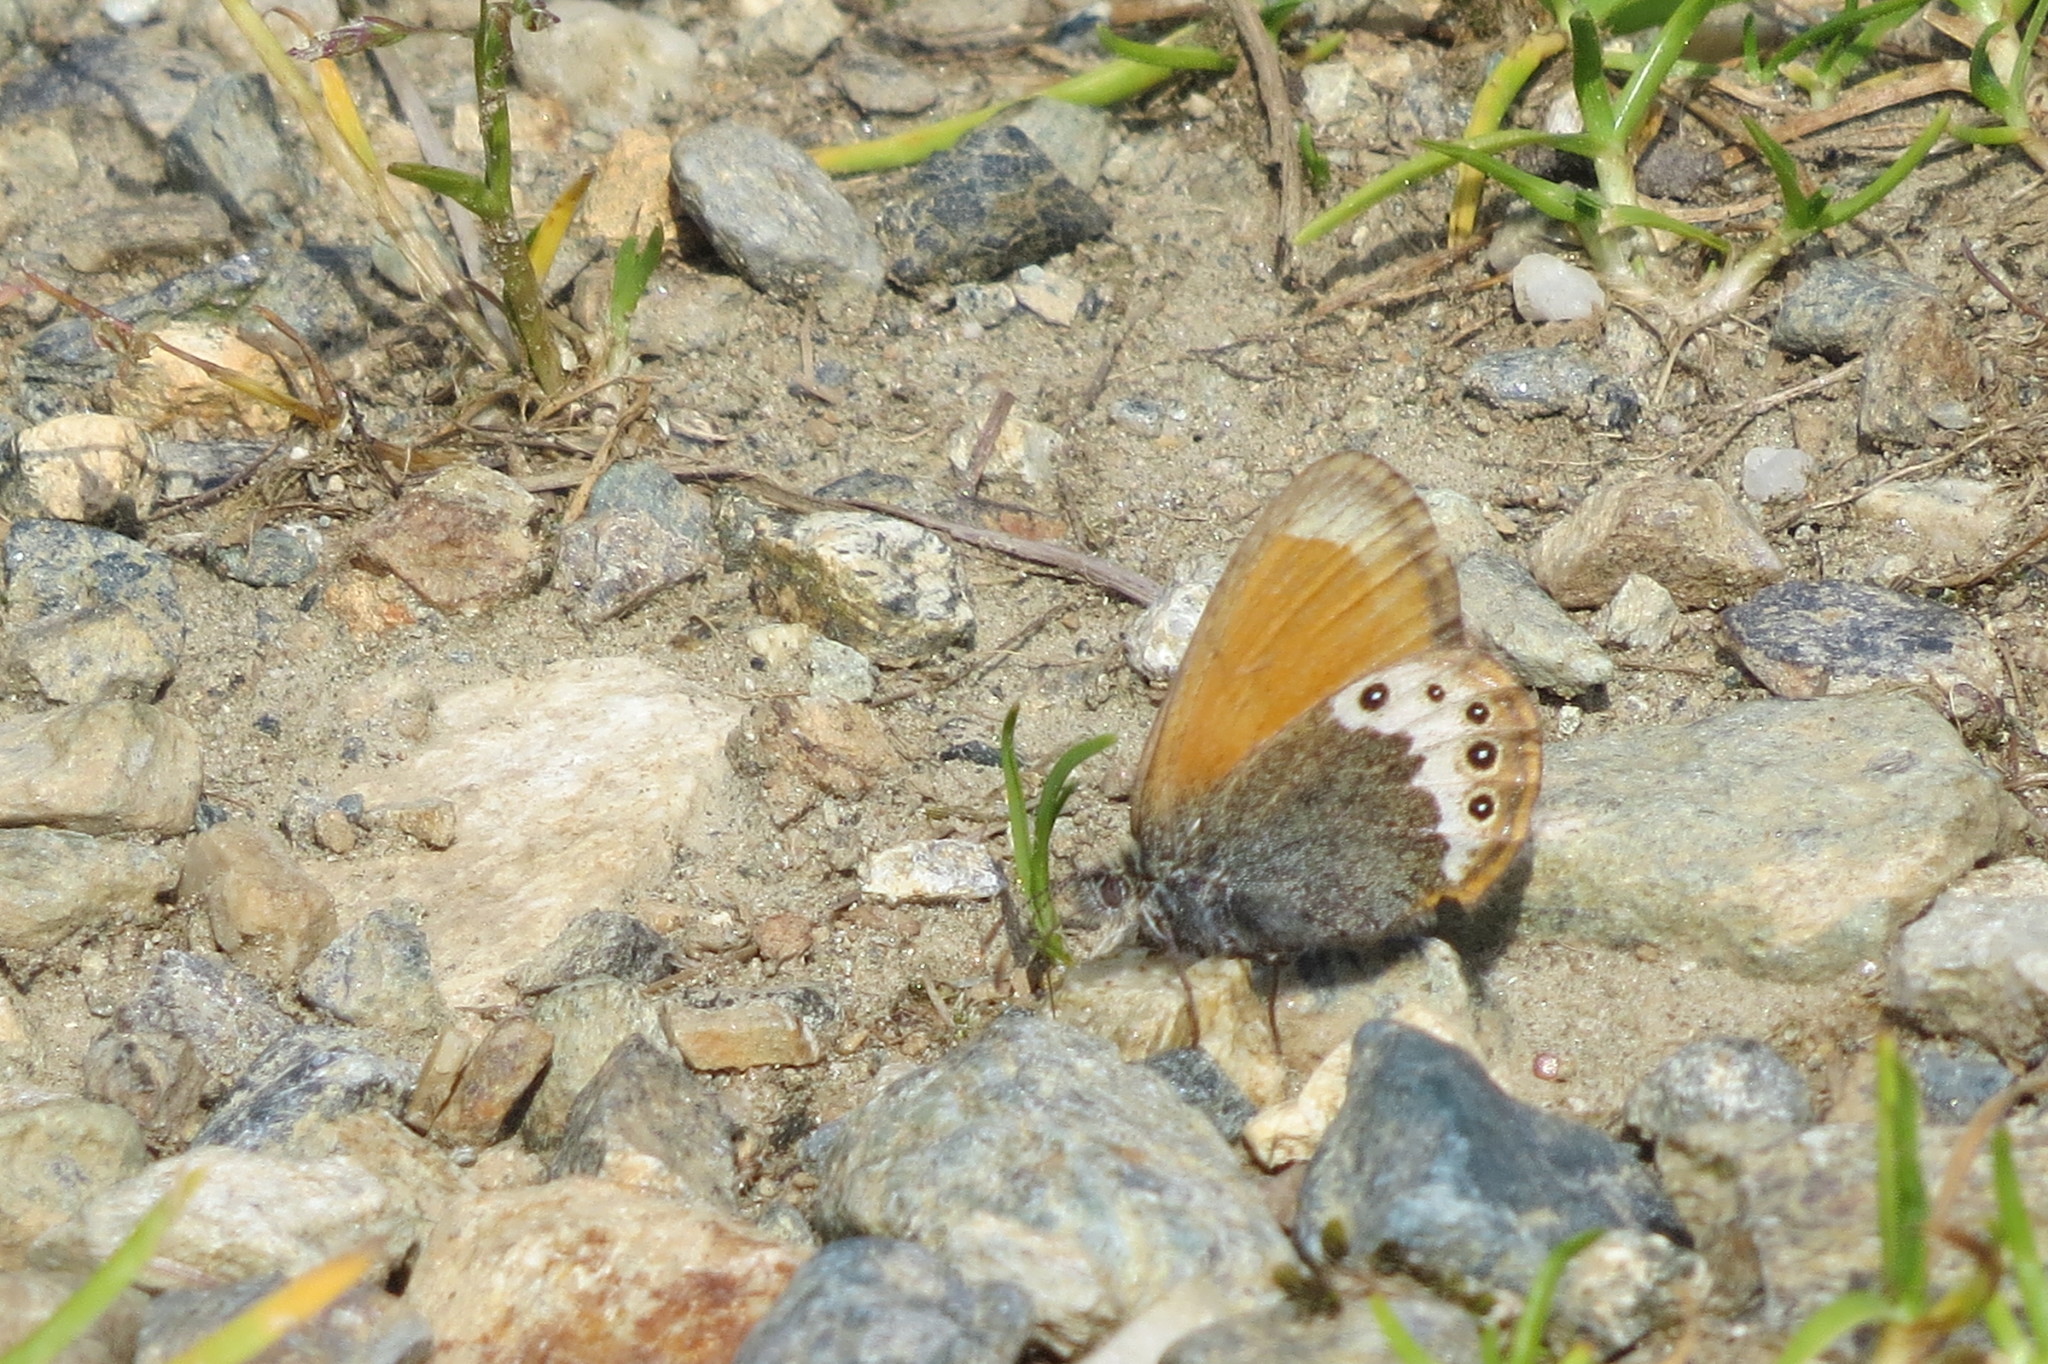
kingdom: Animalia
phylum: Arthropoda
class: Insecta
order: Lepidoptera
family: Nymphalidae
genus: Coenonympha
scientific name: Coenonympha
